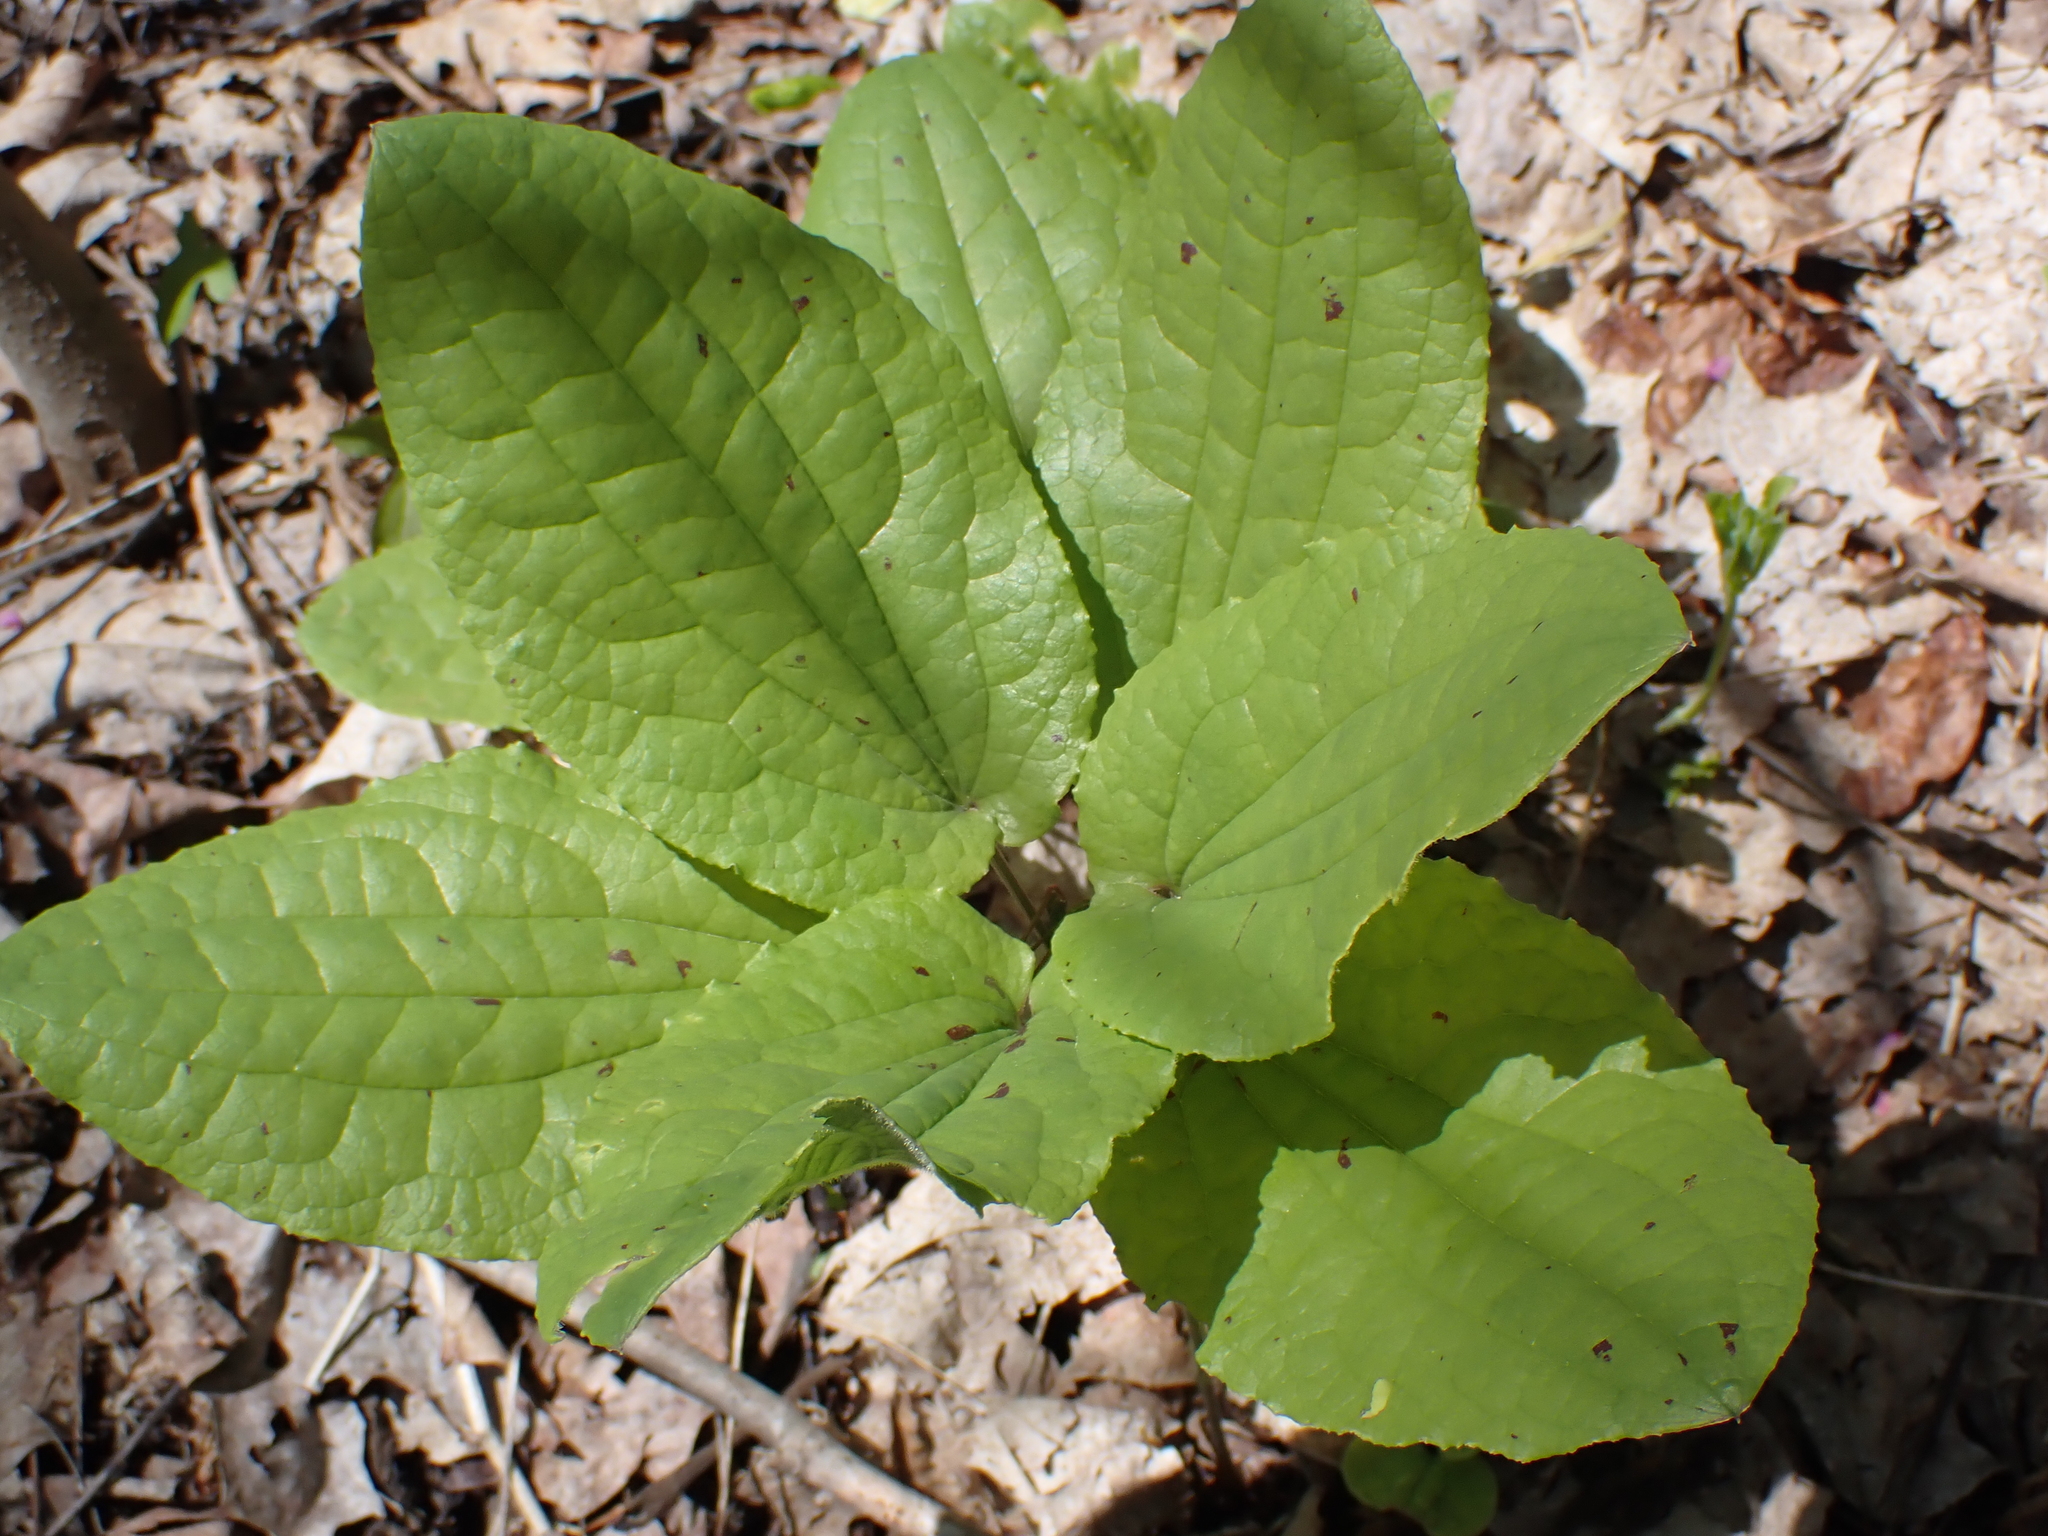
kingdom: Plantae
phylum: Tracheophyta
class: Liliopsida
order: Liliales
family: Smilacaceae
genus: Smilax
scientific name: Smilax ecirrhata
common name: Upright carrionflower
